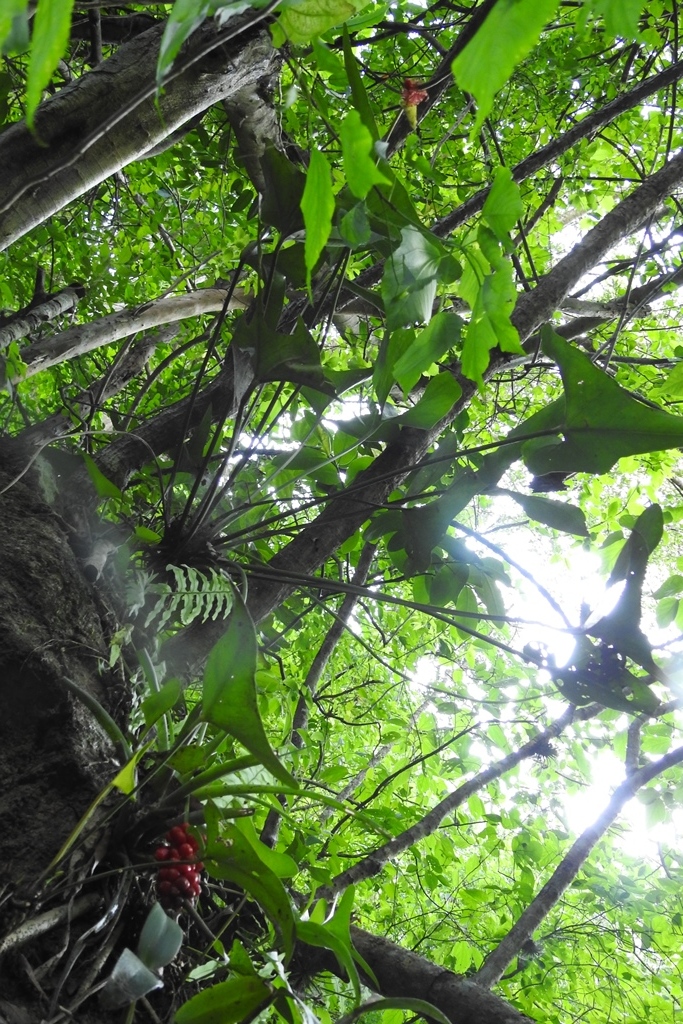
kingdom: Plantae
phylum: Tracheophyta
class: Liliopsida
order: Alismatales
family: Araceae
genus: Anthurium
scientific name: Anthurium cerrobaulense
